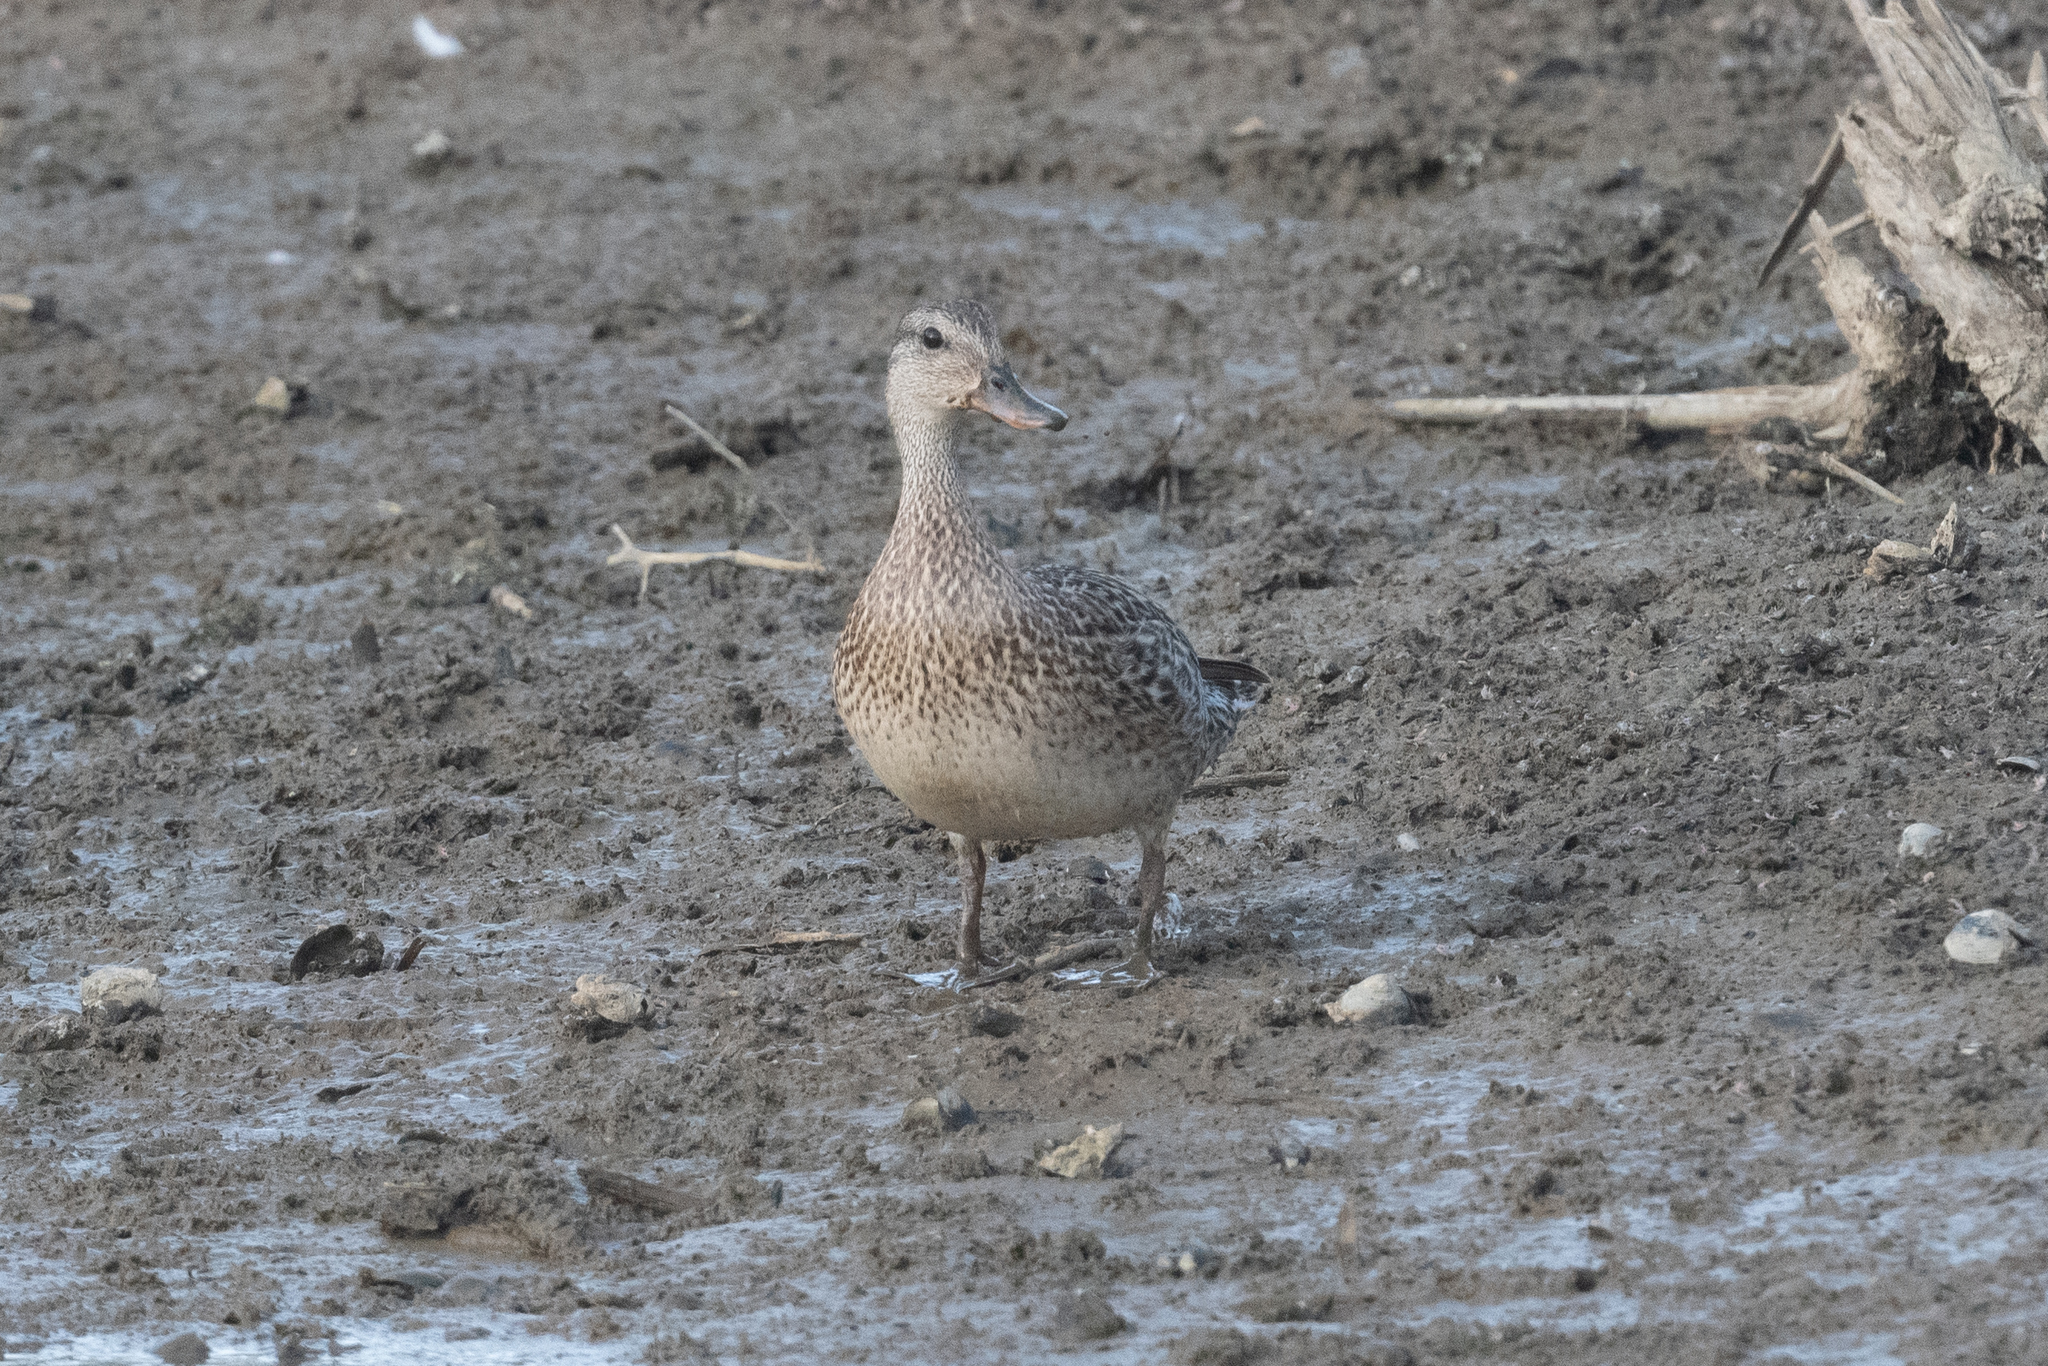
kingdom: Animalia
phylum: Chordata
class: Aves
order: Anseriformes
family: Anatidae
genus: Mareca
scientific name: Mareca strepera
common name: Gadwall
